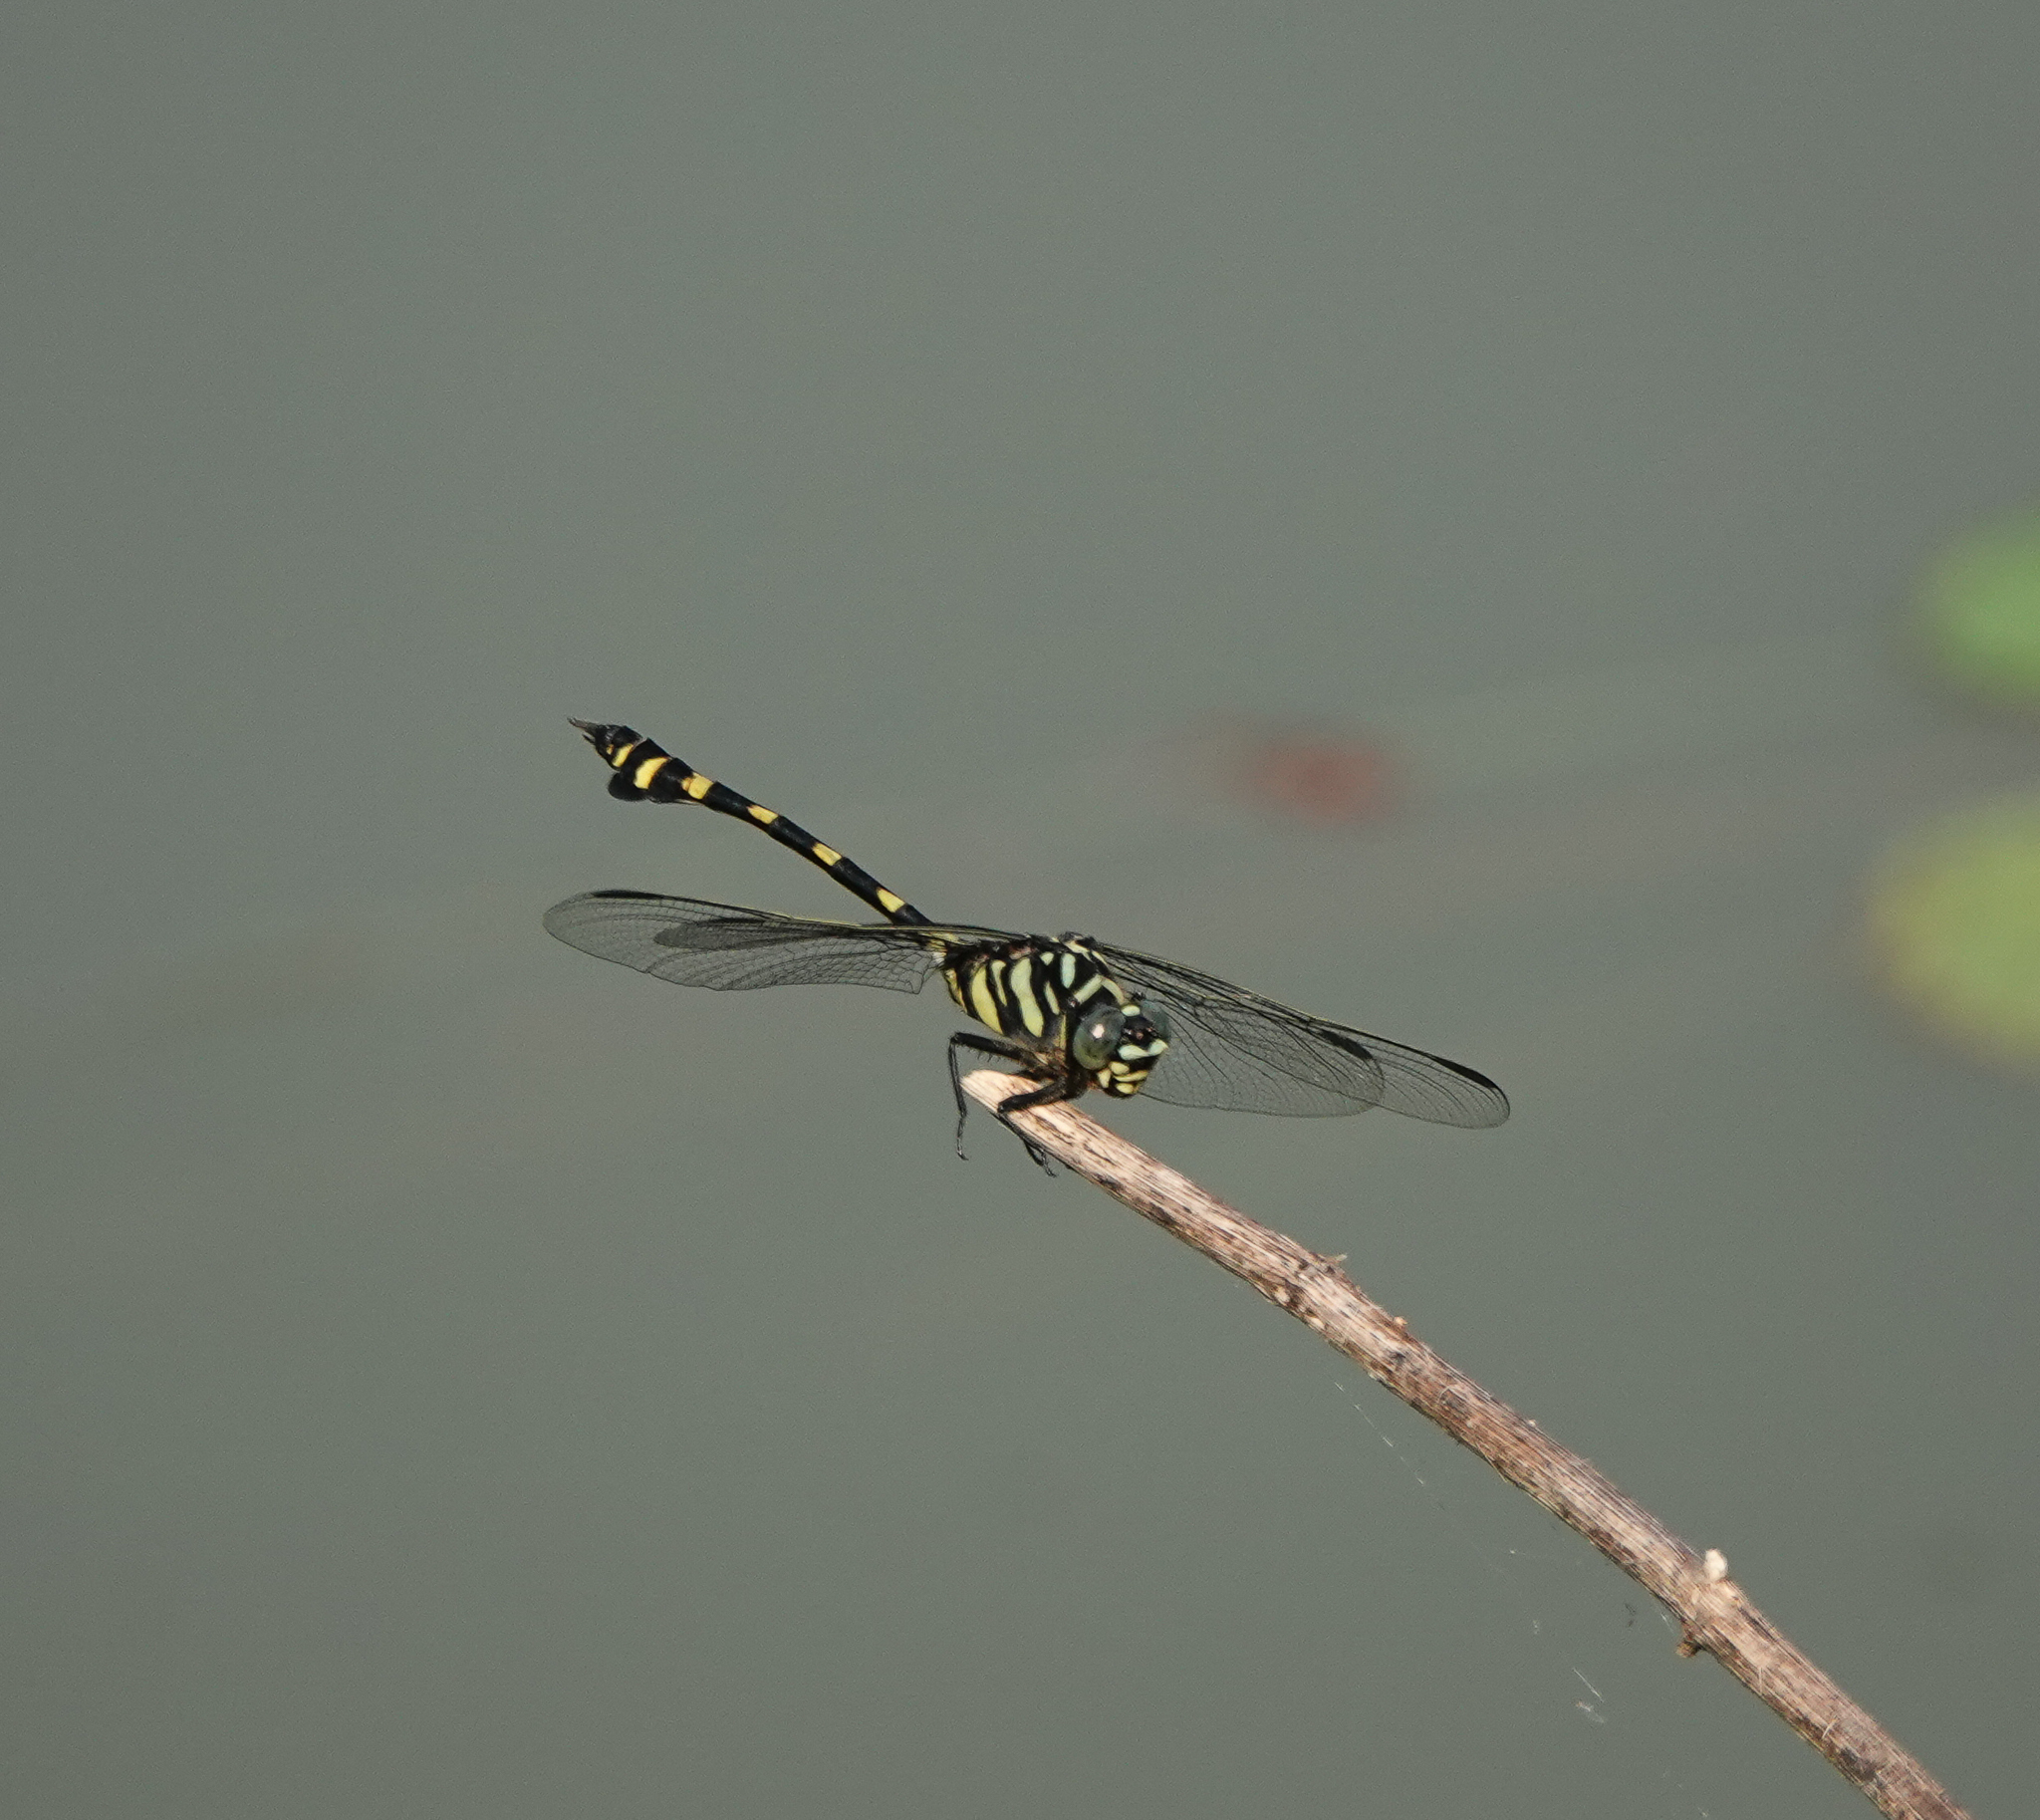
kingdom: Animalia
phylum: Arthropoda
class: Insecta
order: Odonata
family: Gomphidae
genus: Ictinogomphus
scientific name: Ictinogomphus rapax
